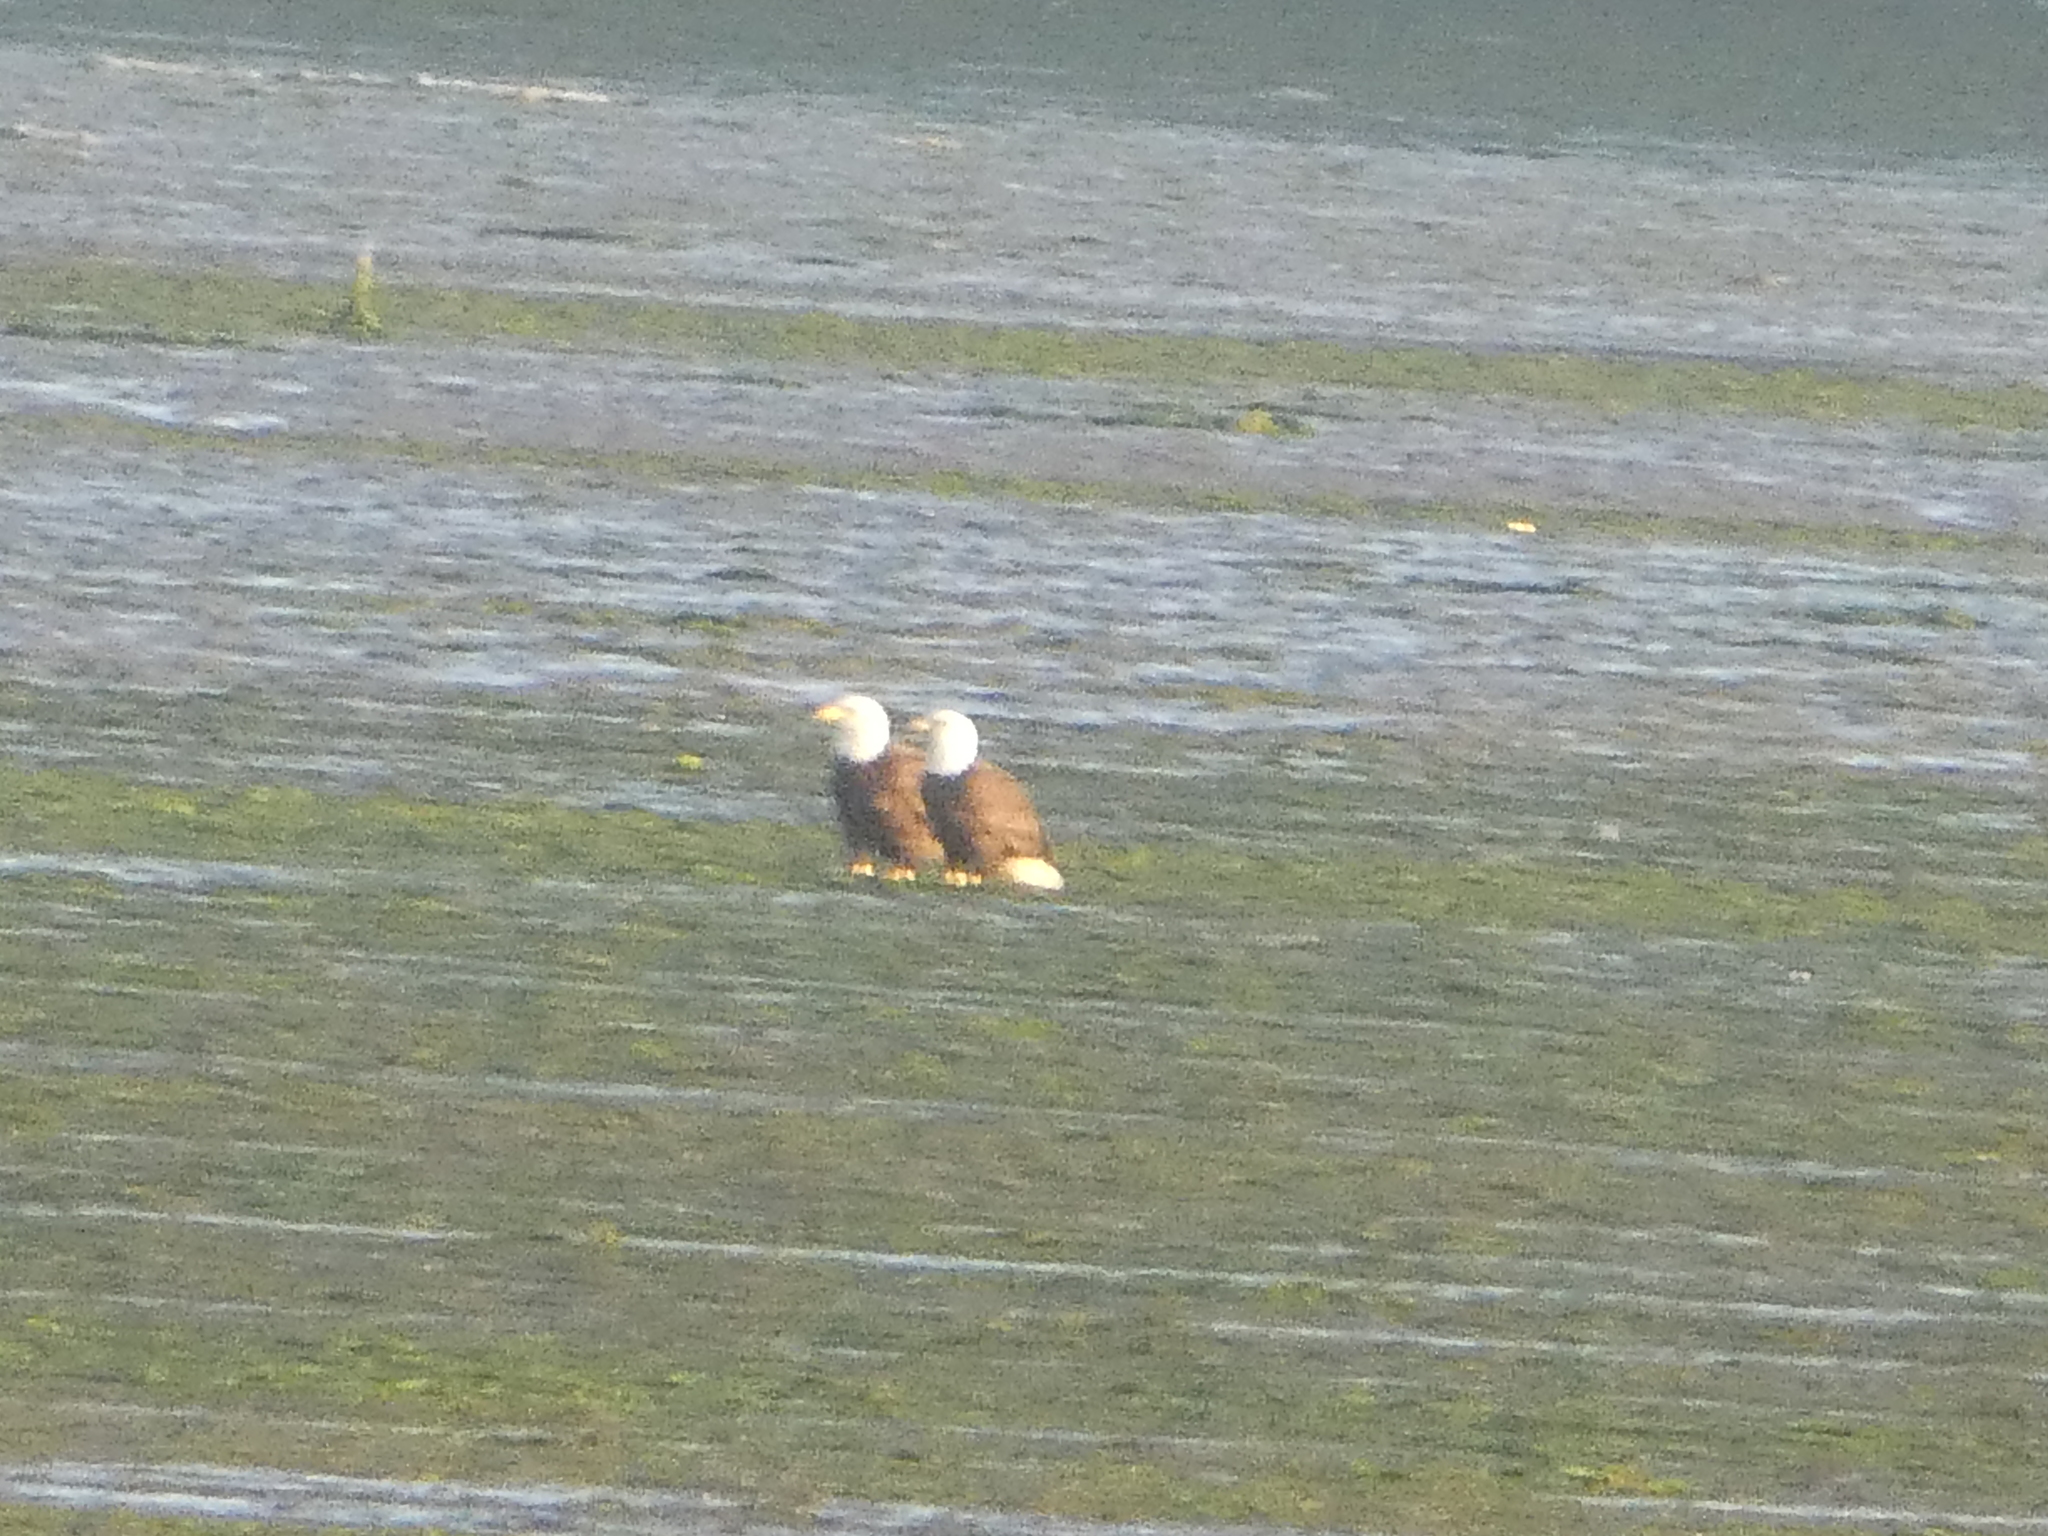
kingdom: Animalia
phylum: Chordata
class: Aves
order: Charadriiformes
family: Scolopacidae
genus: Numenius
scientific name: Numenius americanus
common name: Long-billed curlew
